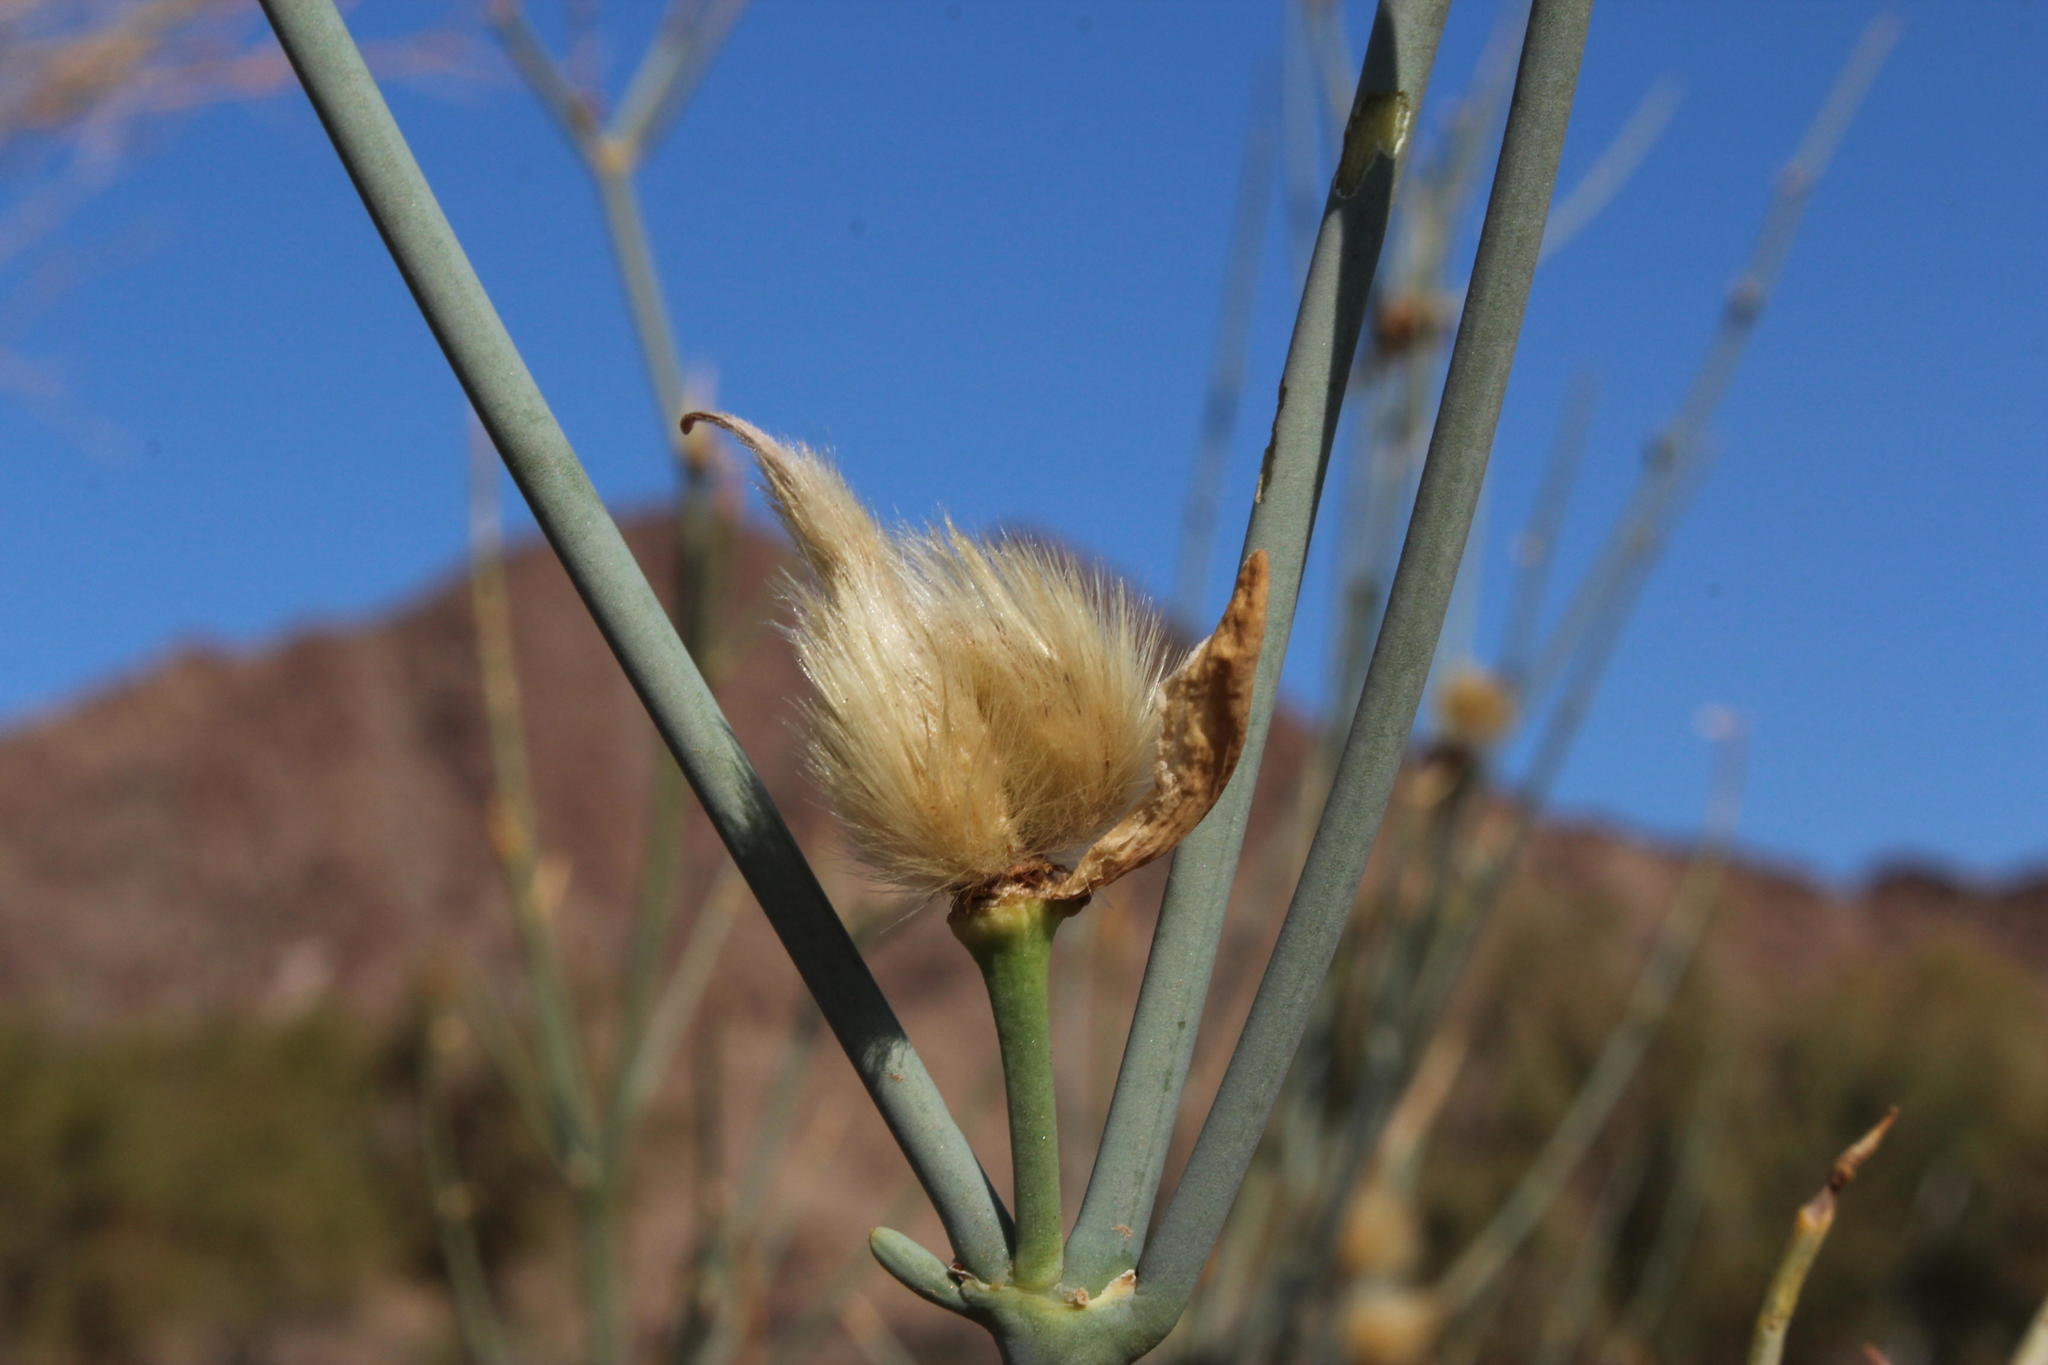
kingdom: Plantae
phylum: Tracheophyta
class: Magnoliopsida
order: Zygophyllales
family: Zygophyllaceae
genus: Sisyndite
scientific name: Sisyndite spartea
